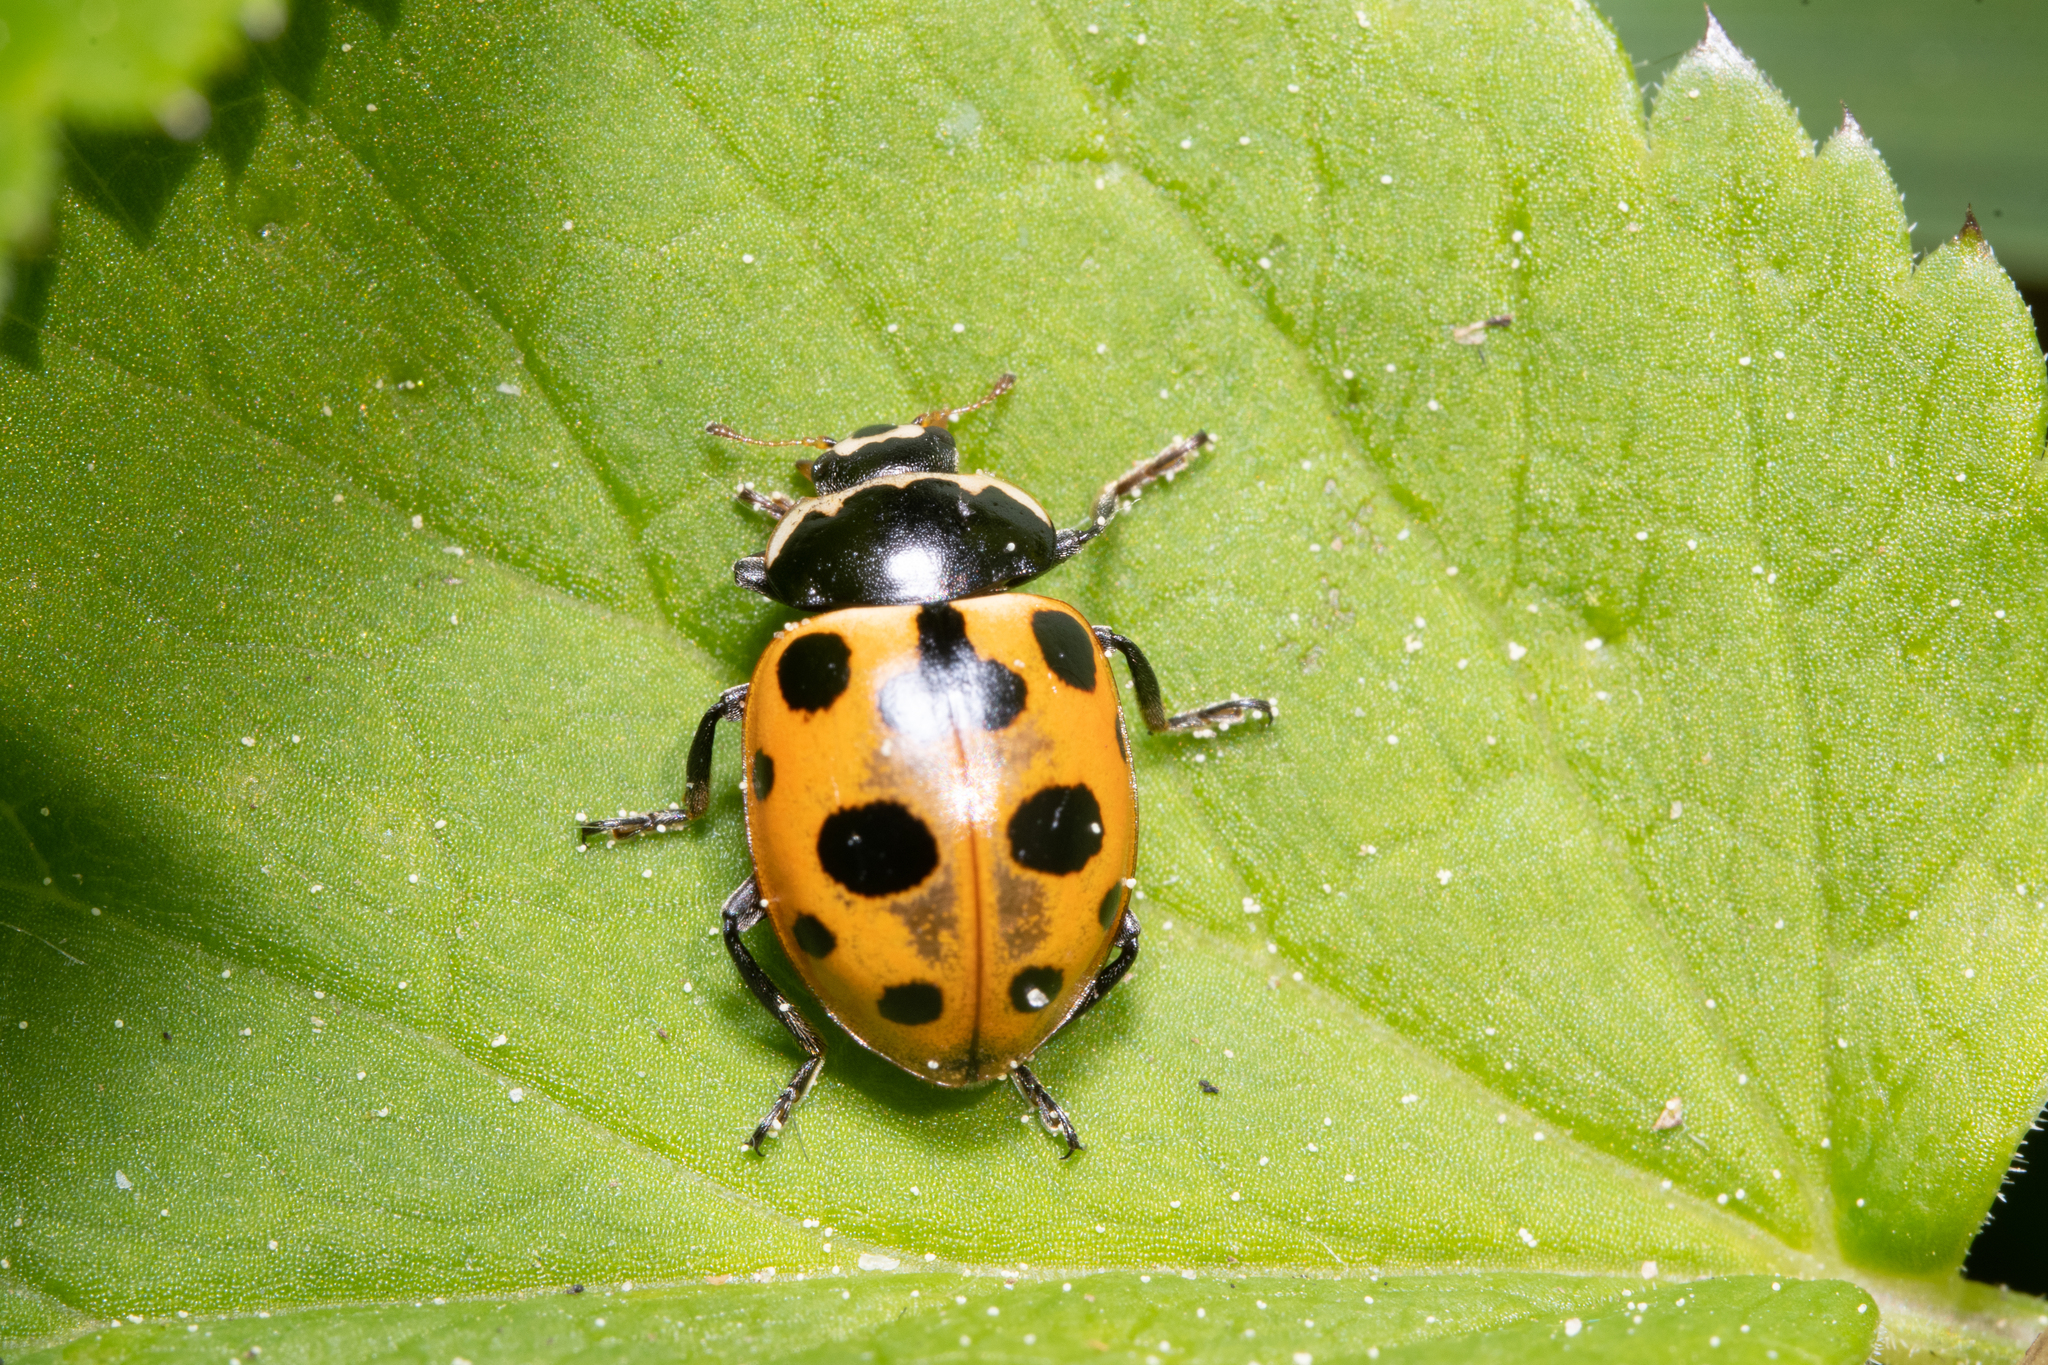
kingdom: Animalia
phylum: Arthropoda
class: Insecta
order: Coleoptera
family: Coccinellidae
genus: Ceratomegilla
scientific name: Ceratomegilla notata
